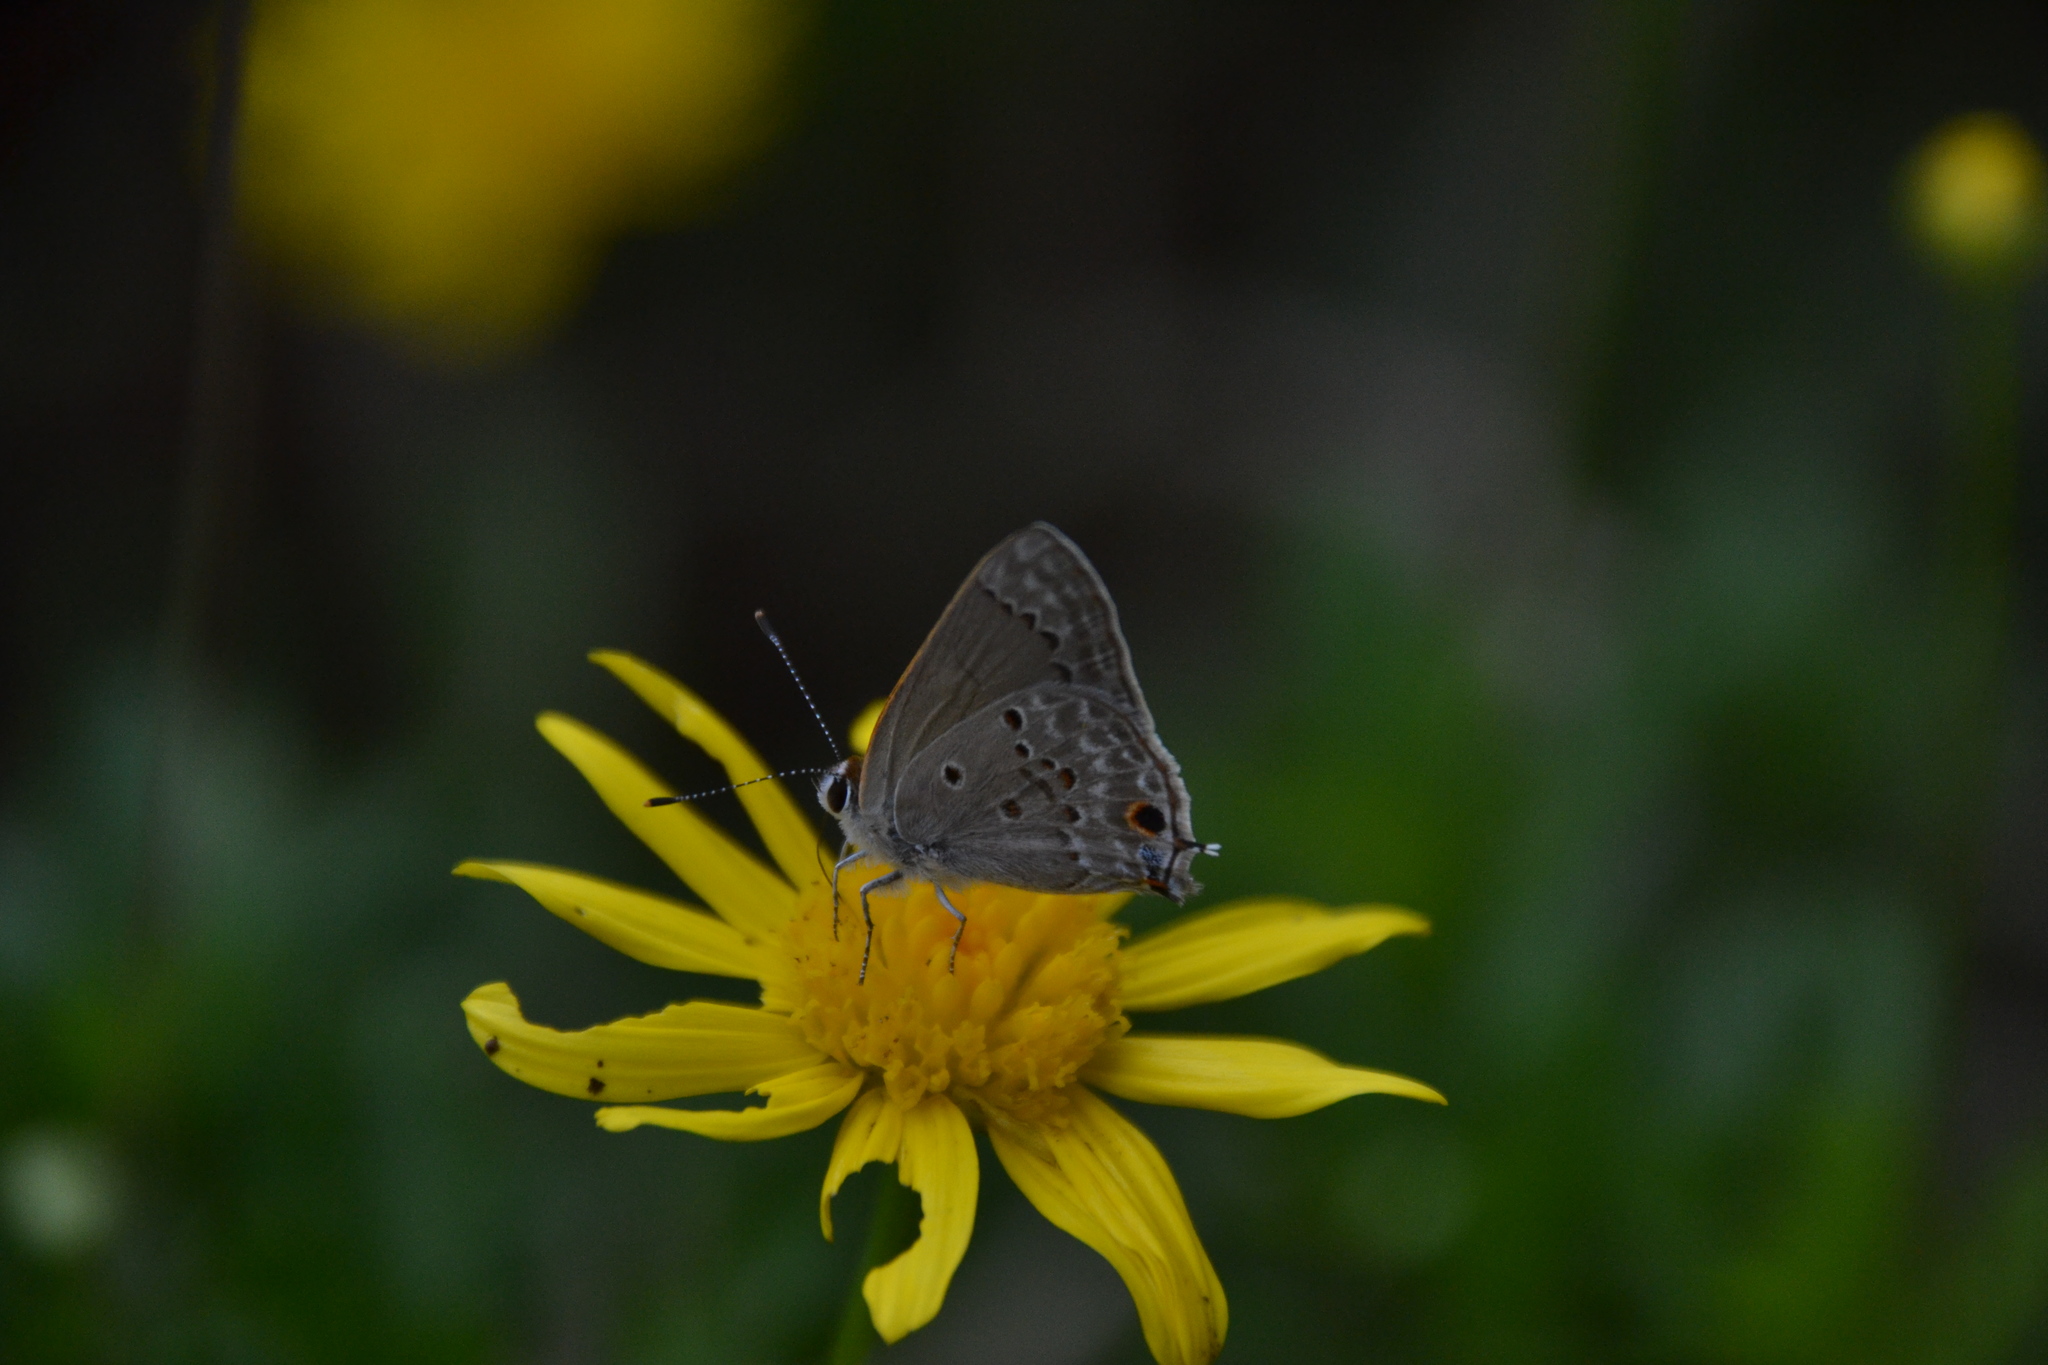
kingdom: Animalia
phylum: Arthropoda
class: Insecta
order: Lepidoptera
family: Lycaenidae
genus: Callicista
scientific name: Callicista columella
